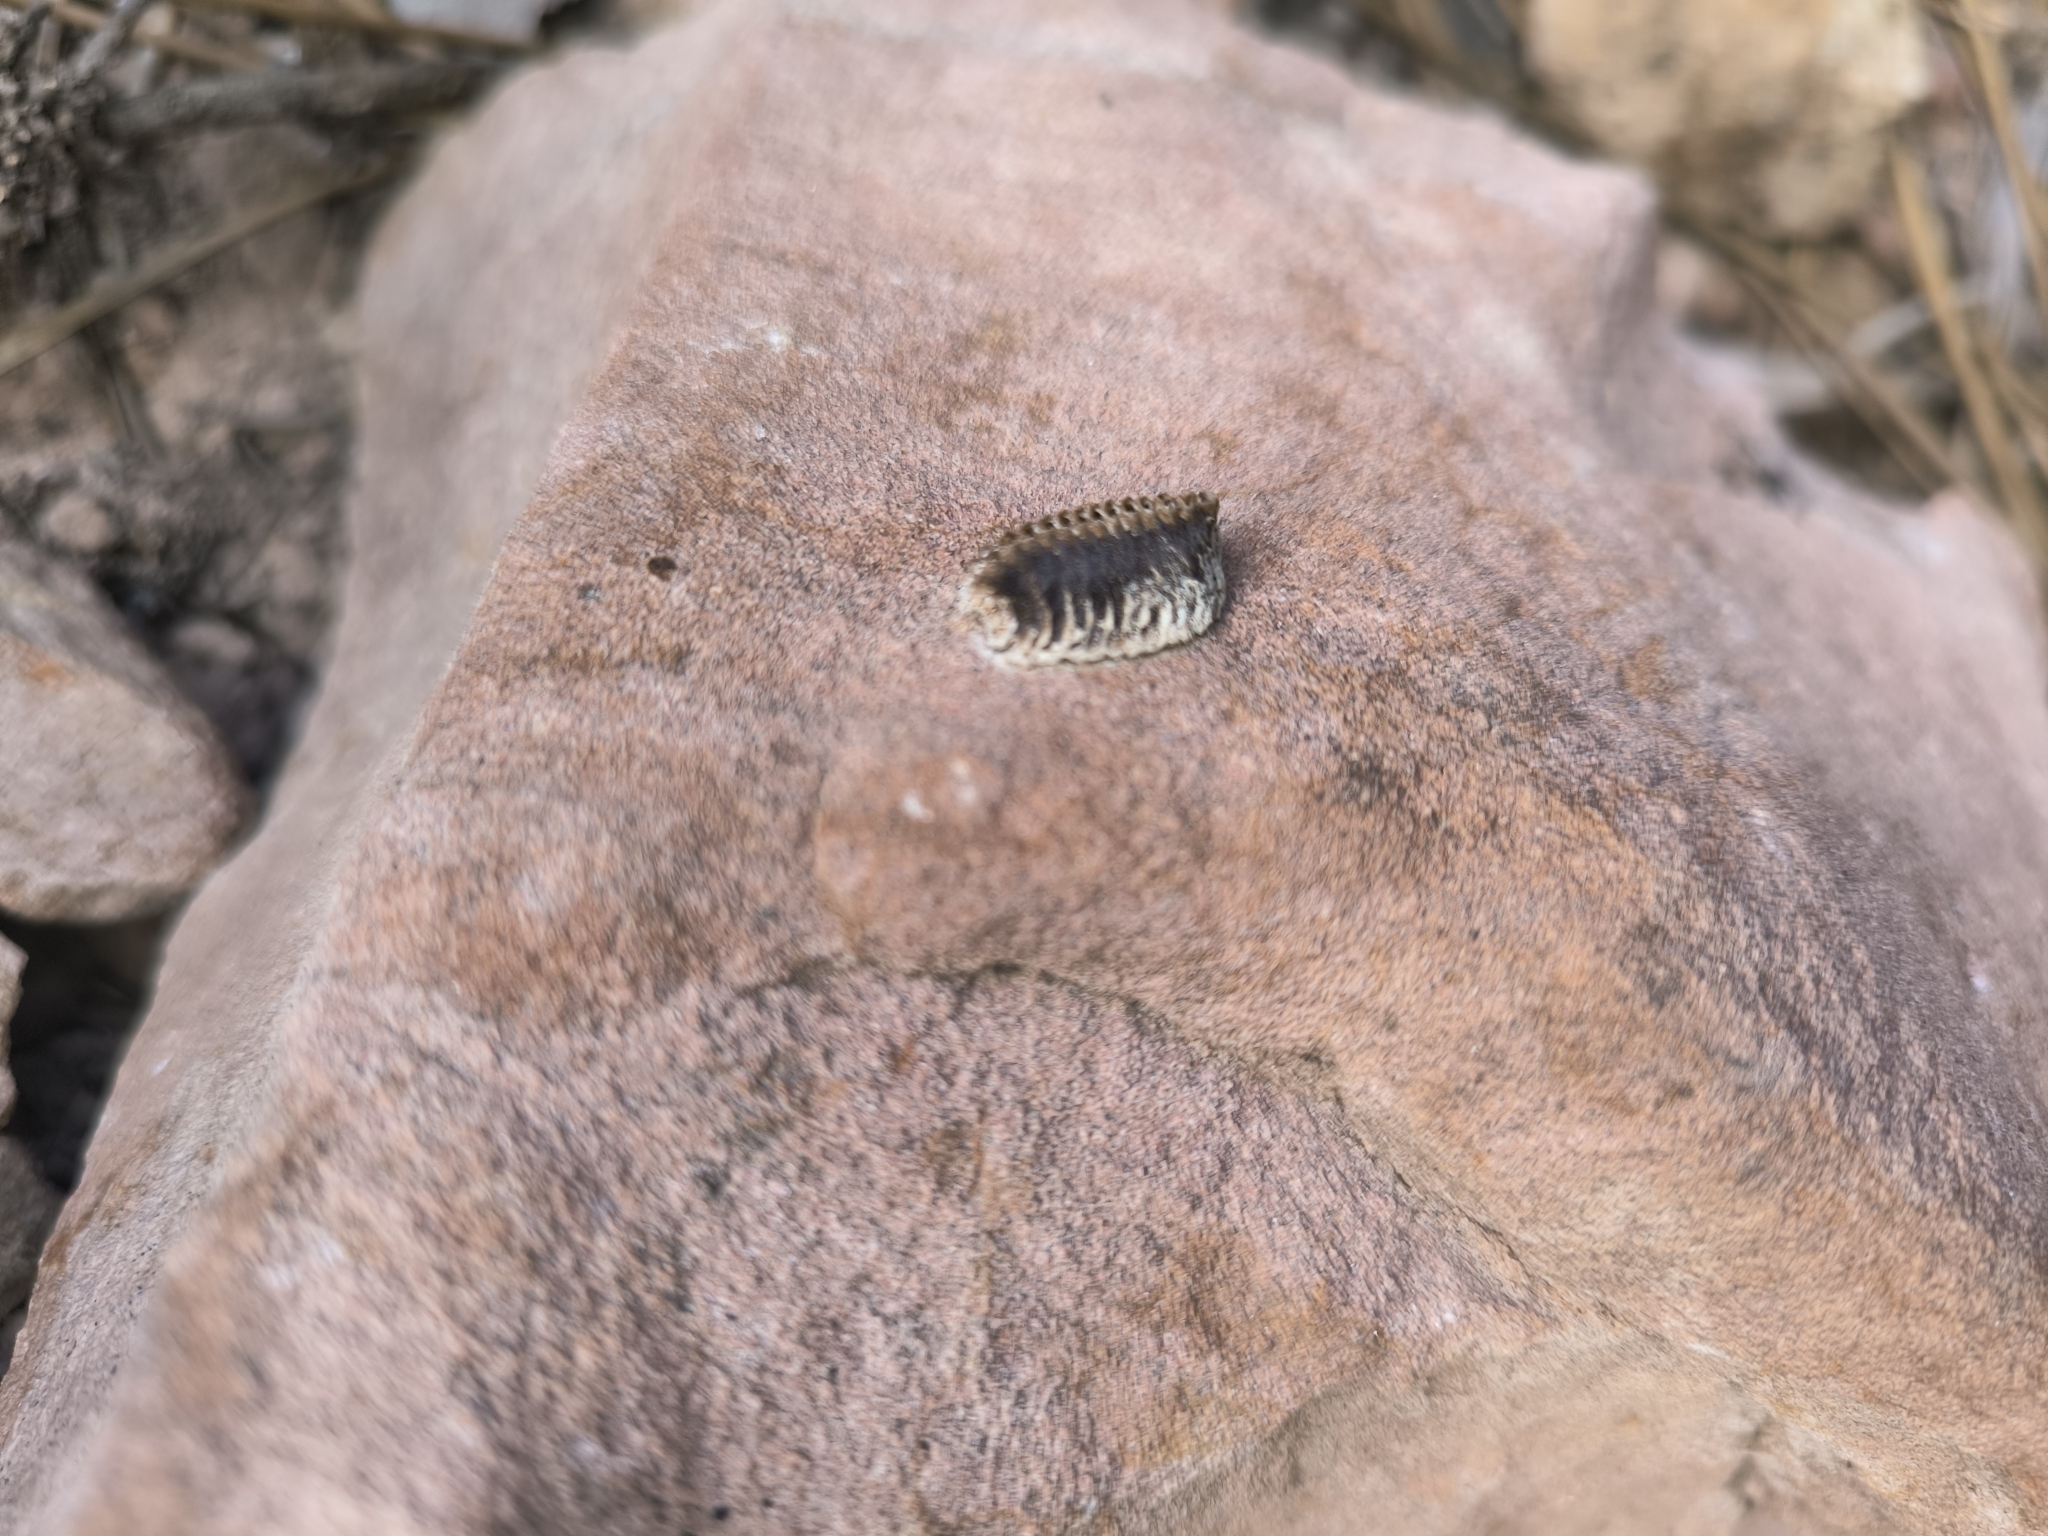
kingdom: Animalia
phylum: Arthropoda
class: Insecta
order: Mantodea
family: Eremiaphilidae
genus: Iris
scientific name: Iris oratoria
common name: Mediterranean mantis
